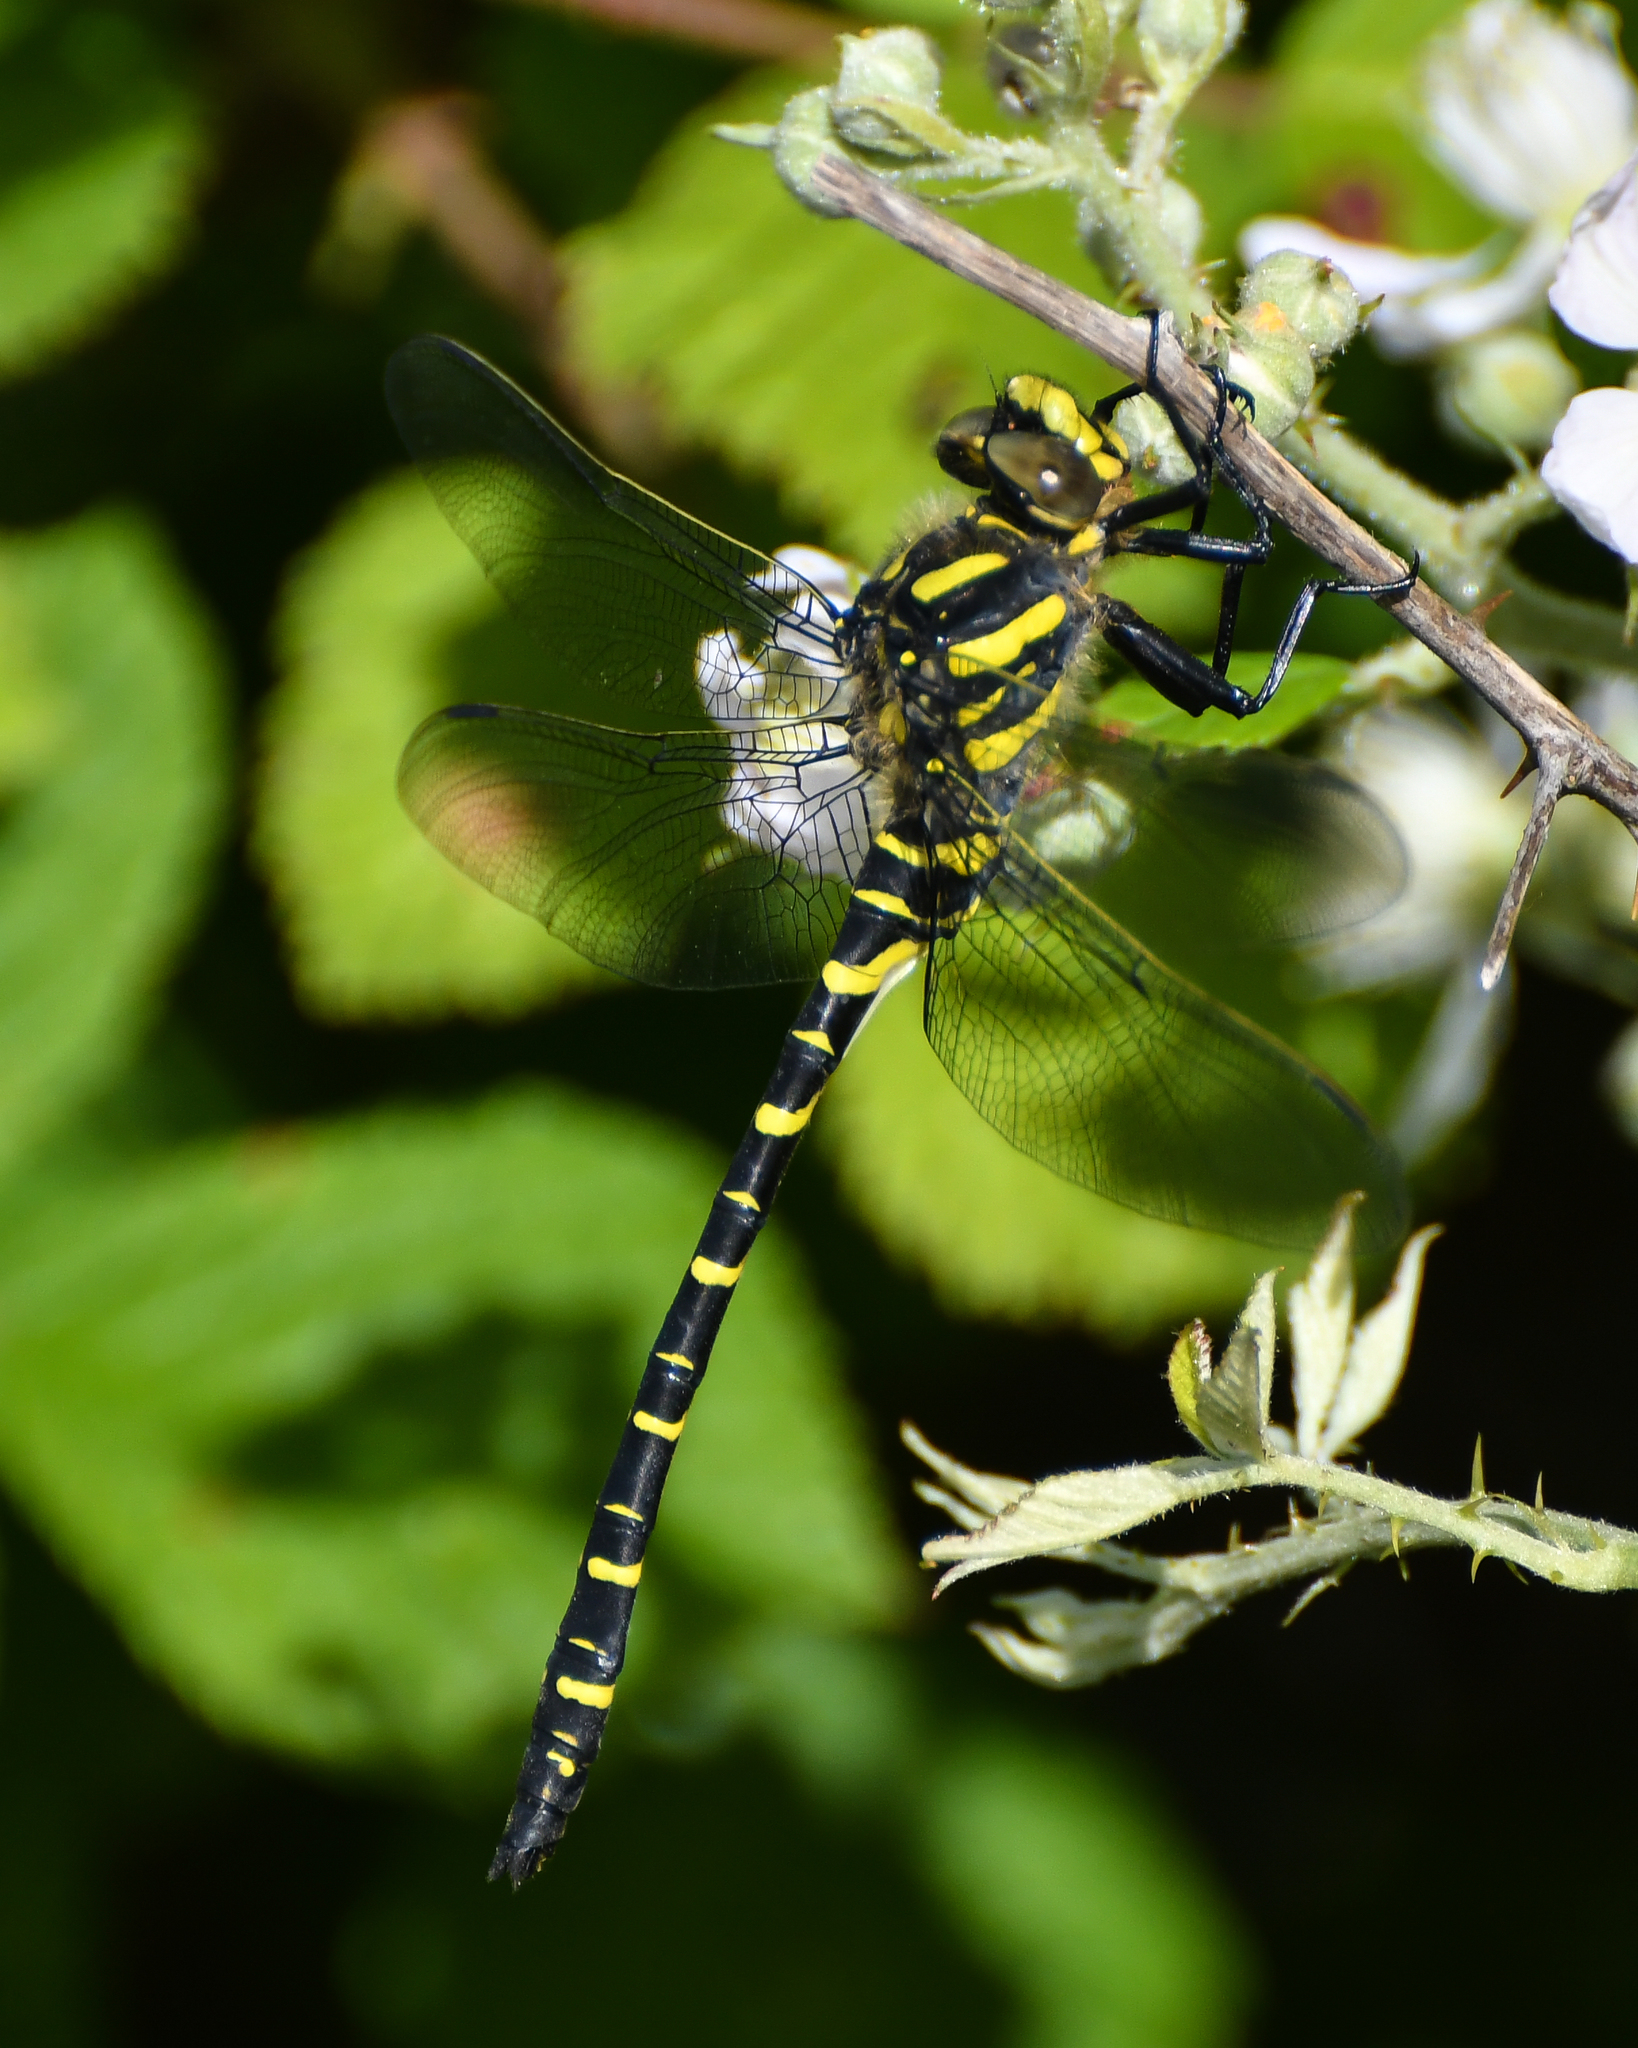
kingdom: Animalia
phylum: Arthropoda
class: Insecta
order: Odonata
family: Cordulegastridae
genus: Cordulegaster
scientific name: Cordulegaster boltonii
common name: Golden-ringed dragonfly
